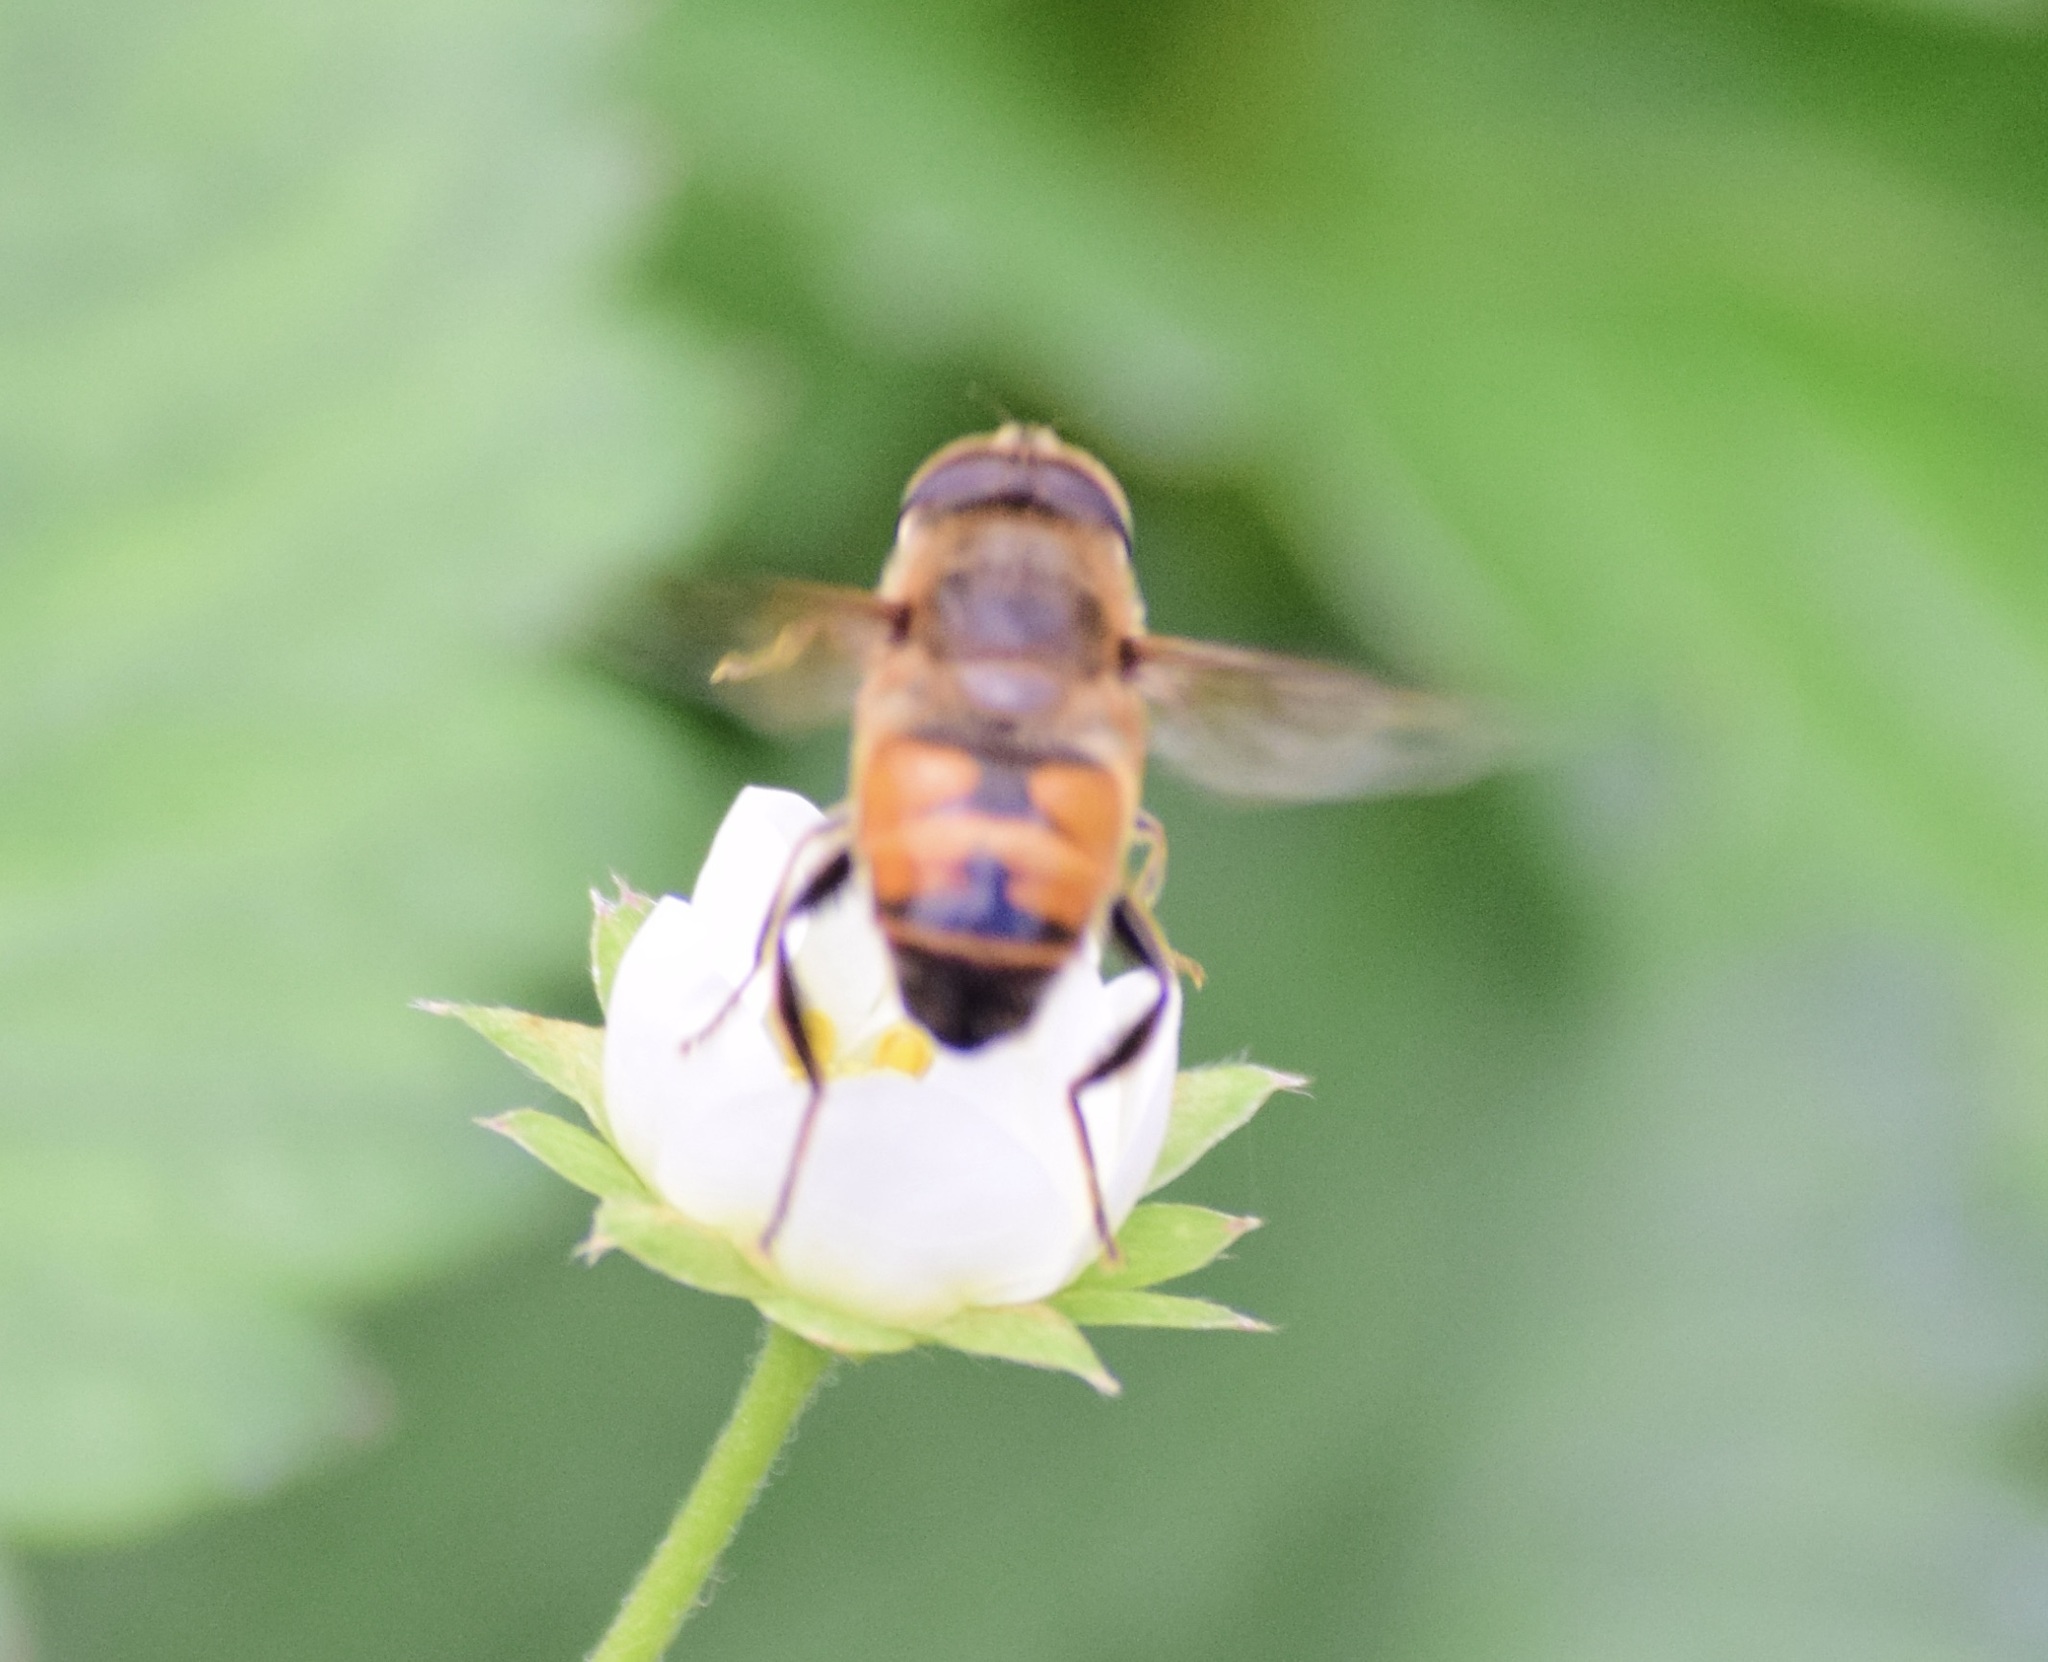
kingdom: Animalia
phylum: Arthropoda
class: Insecta
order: Diptera
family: Syrphidae
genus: Eristalis
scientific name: Eristalis tenax
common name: Drone fly
